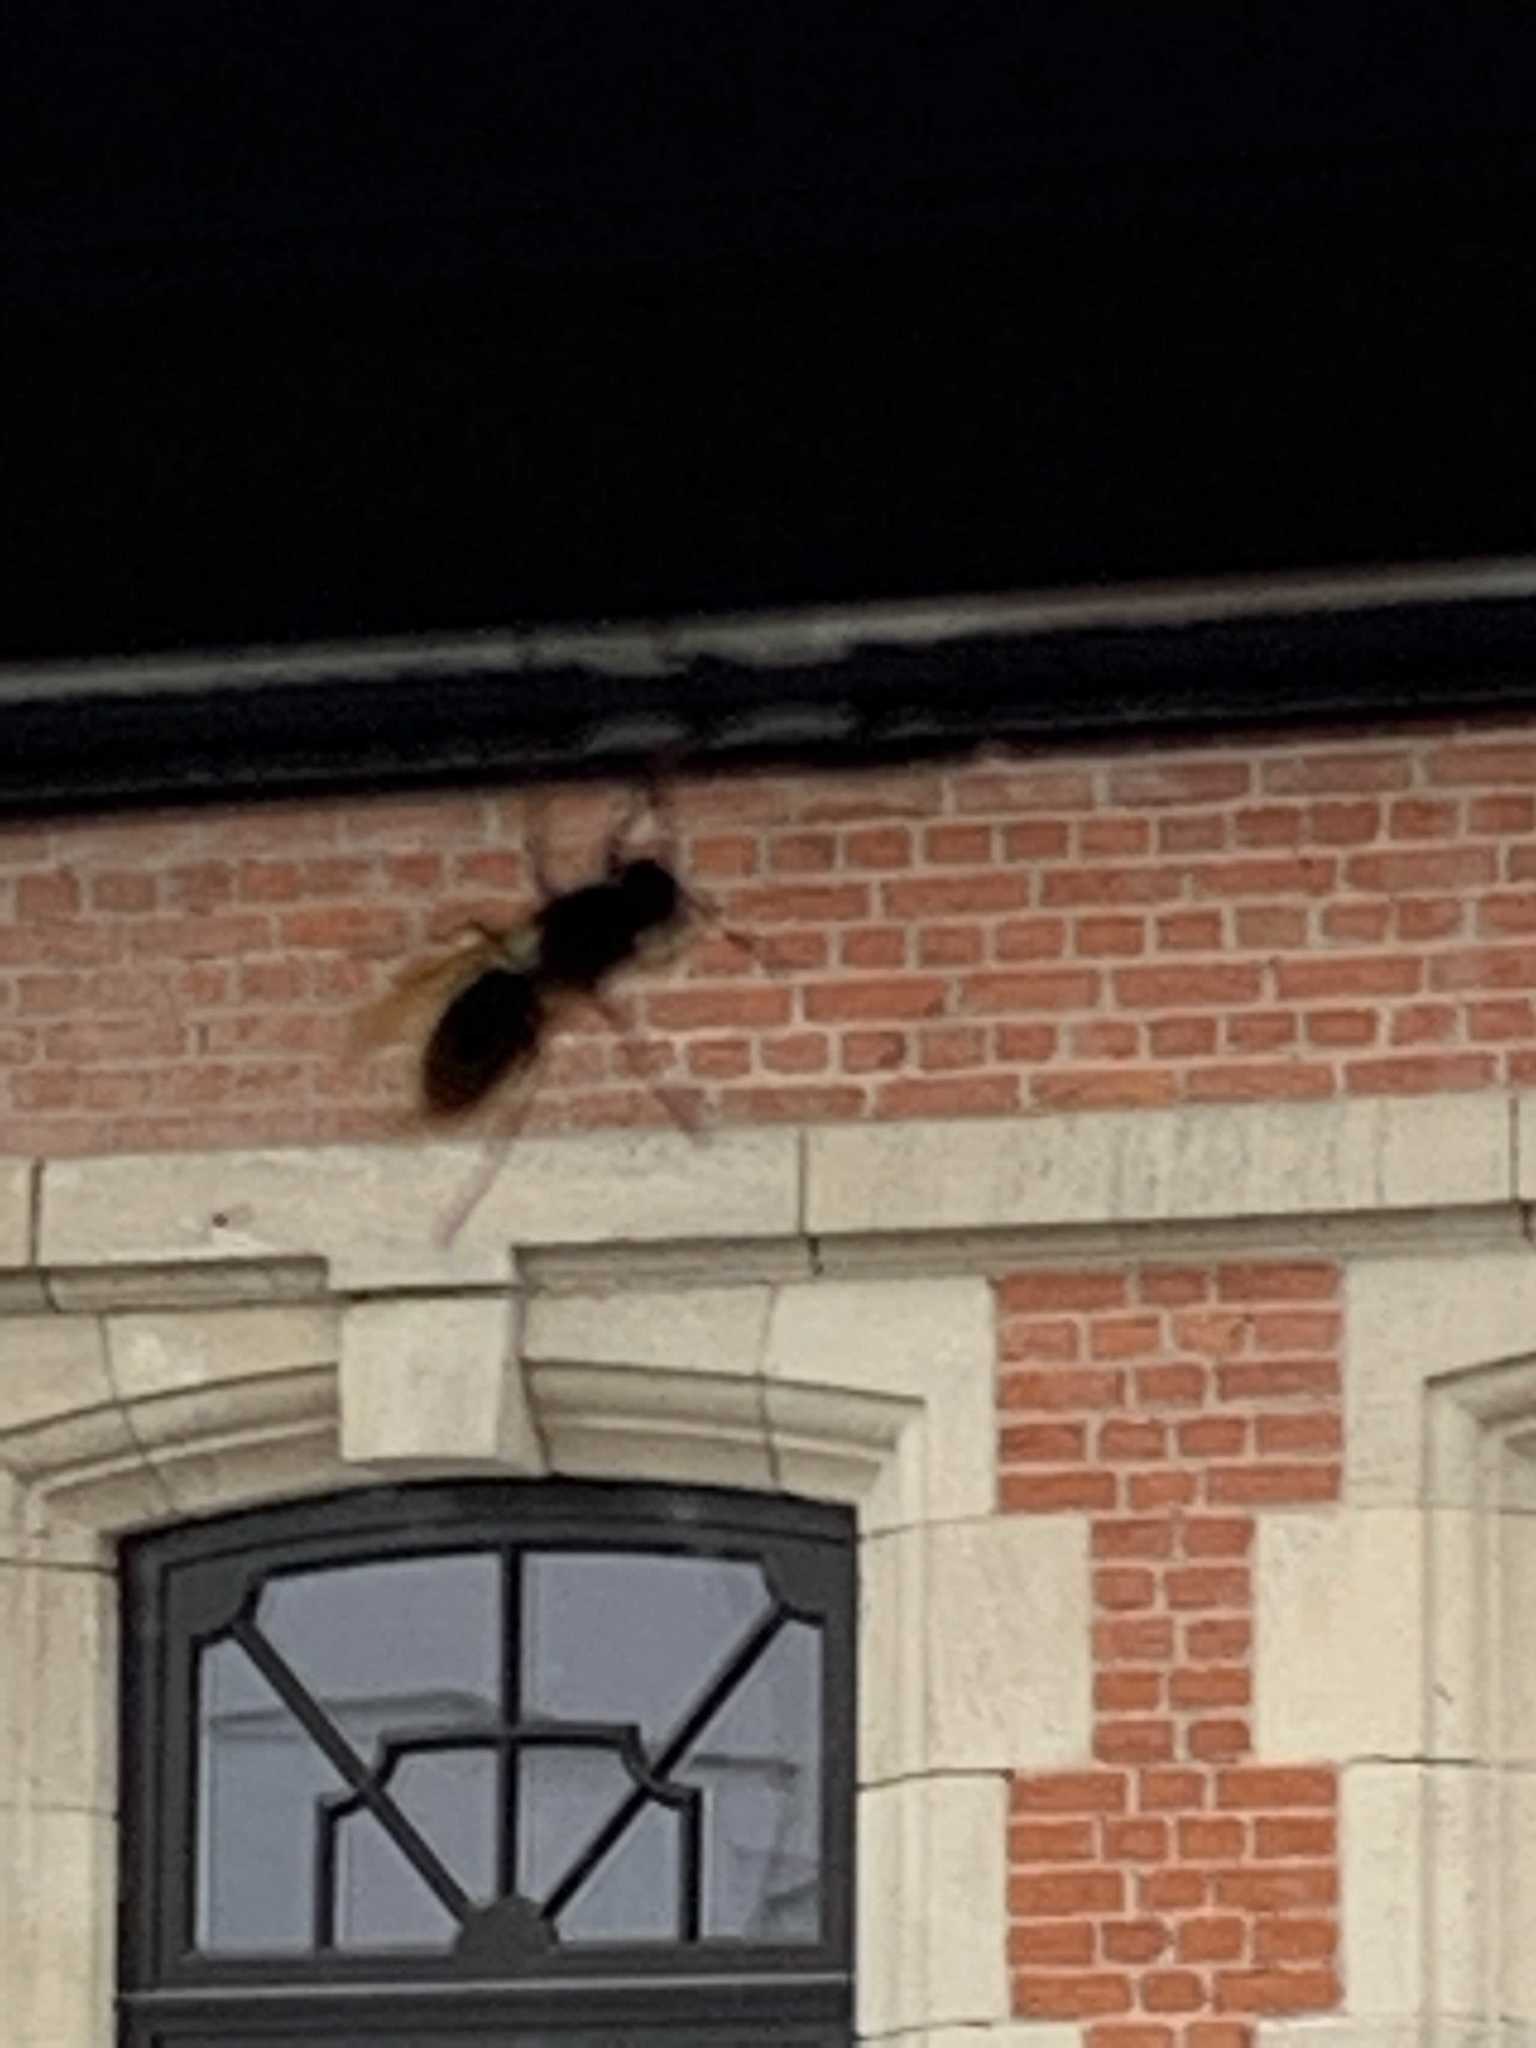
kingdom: Animalia
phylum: Arthropoda
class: Insecta
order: Hymenoptera
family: Vespidae
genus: Vespa
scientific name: Vespa crabro
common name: Hornet
